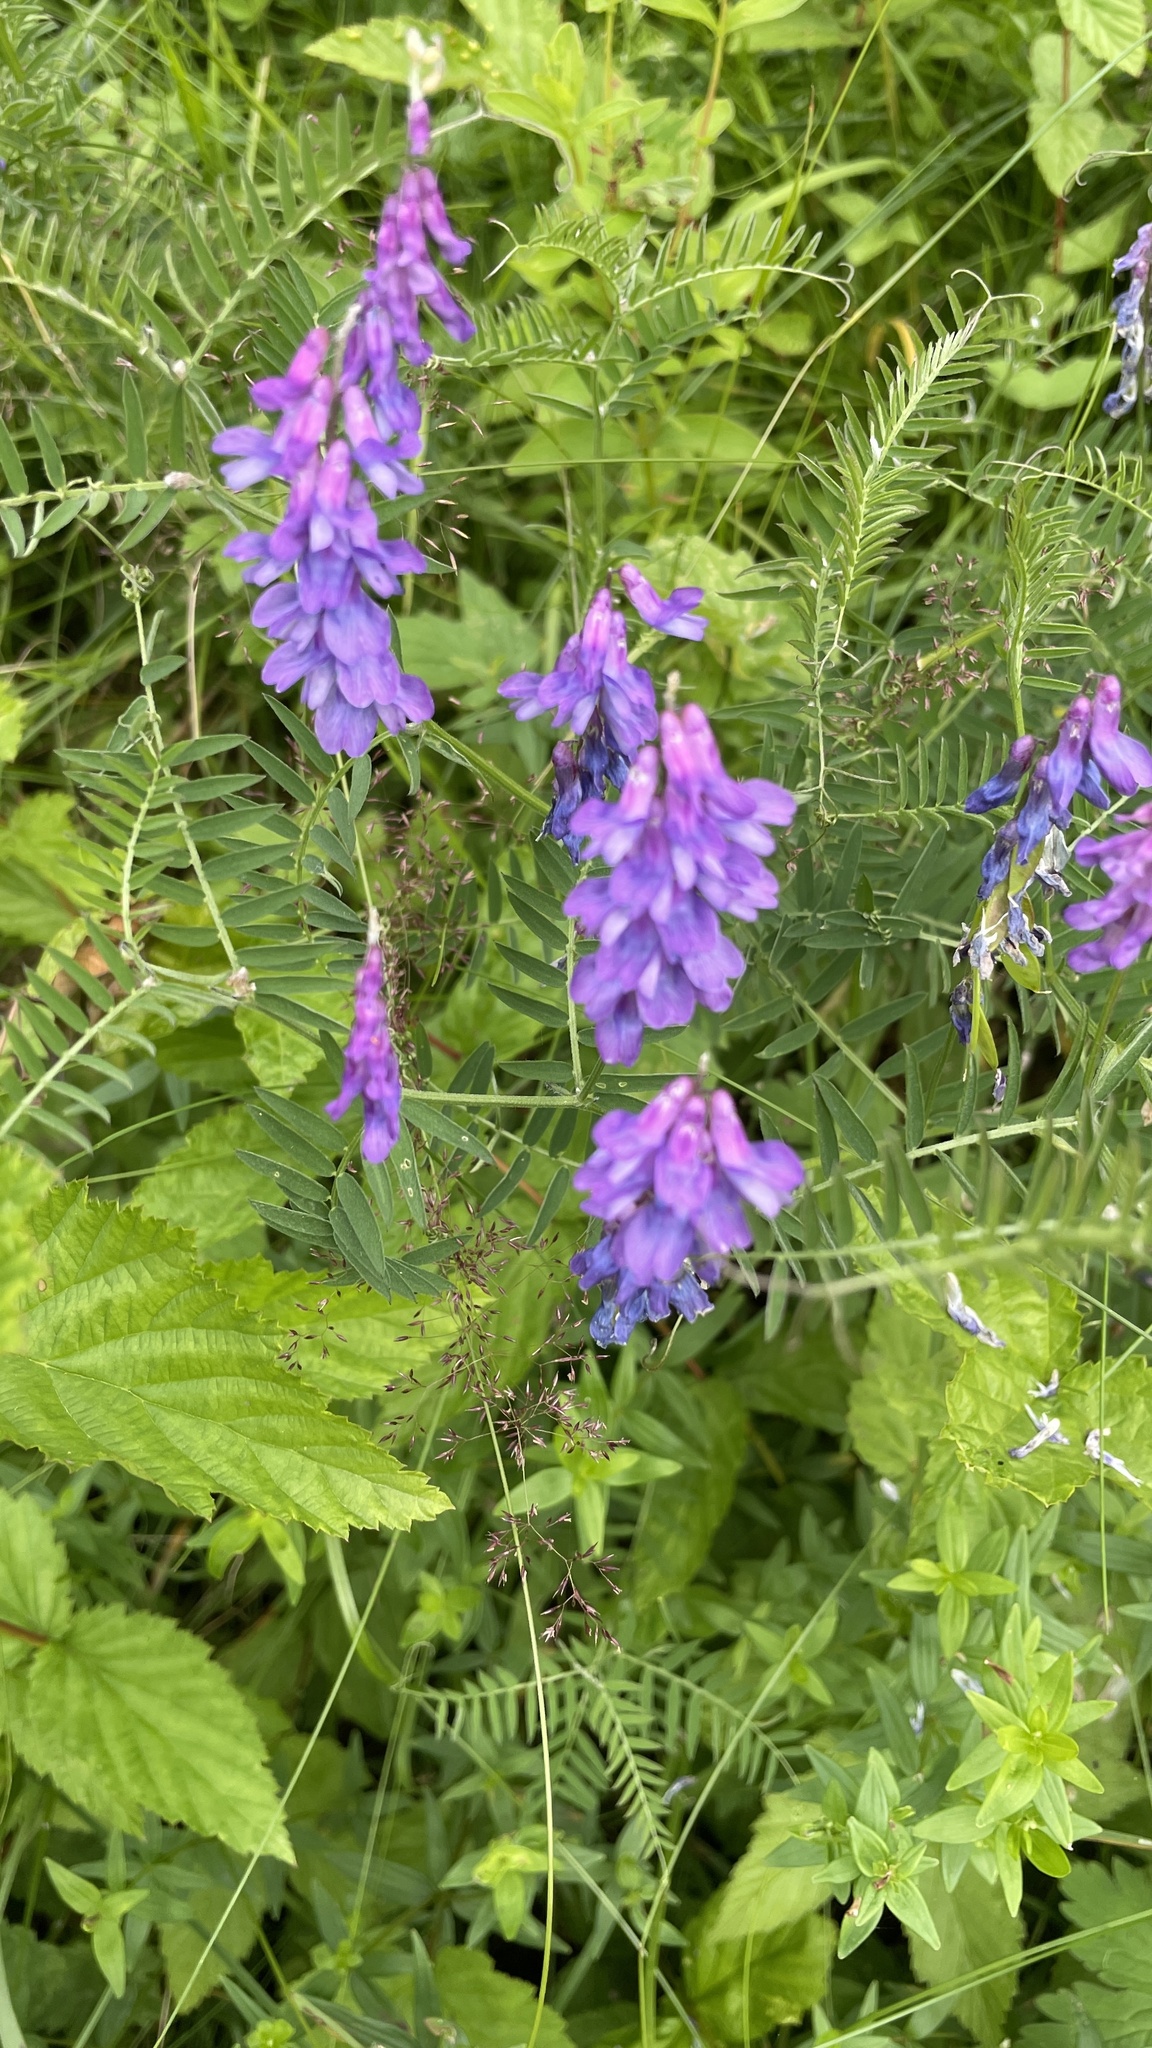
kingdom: Plantae
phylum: Tracheophyta
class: Magnoliopsida
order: Fabales
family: Fabaceae
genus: Vicia
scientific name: Vicia cracca
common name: Bird vetch
